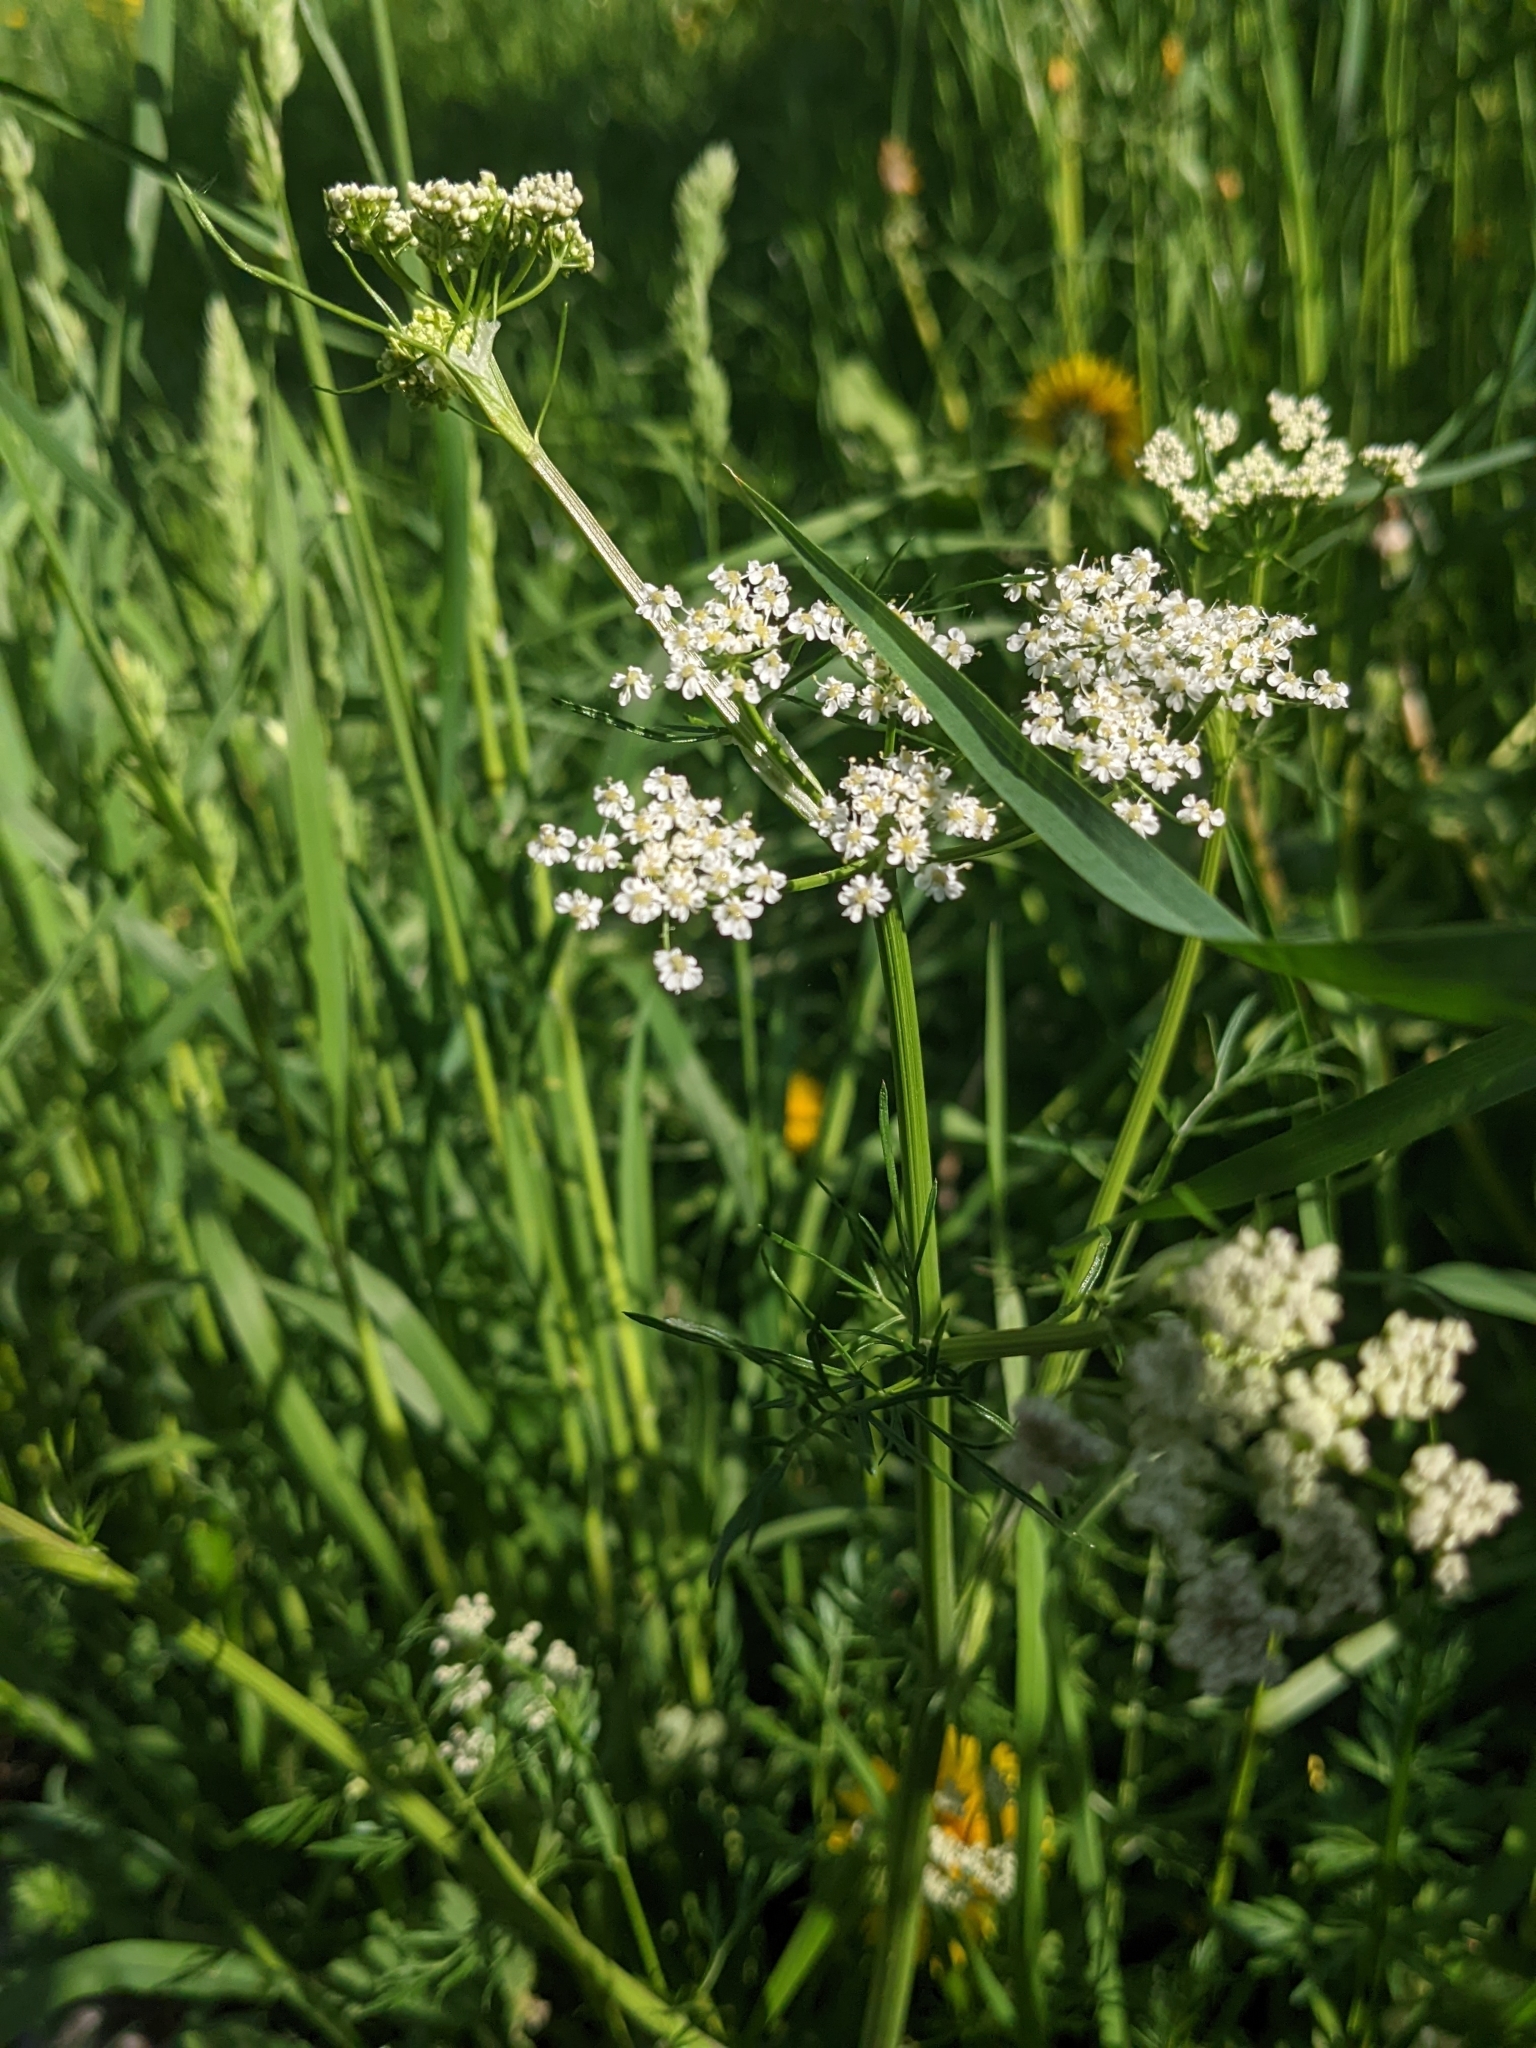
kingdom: Plantae
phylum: Tracheophyta
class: Magnoliopsida
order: Apiales
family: Apiaceae
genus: Carum
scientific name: Carum carvi
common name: Caraway
